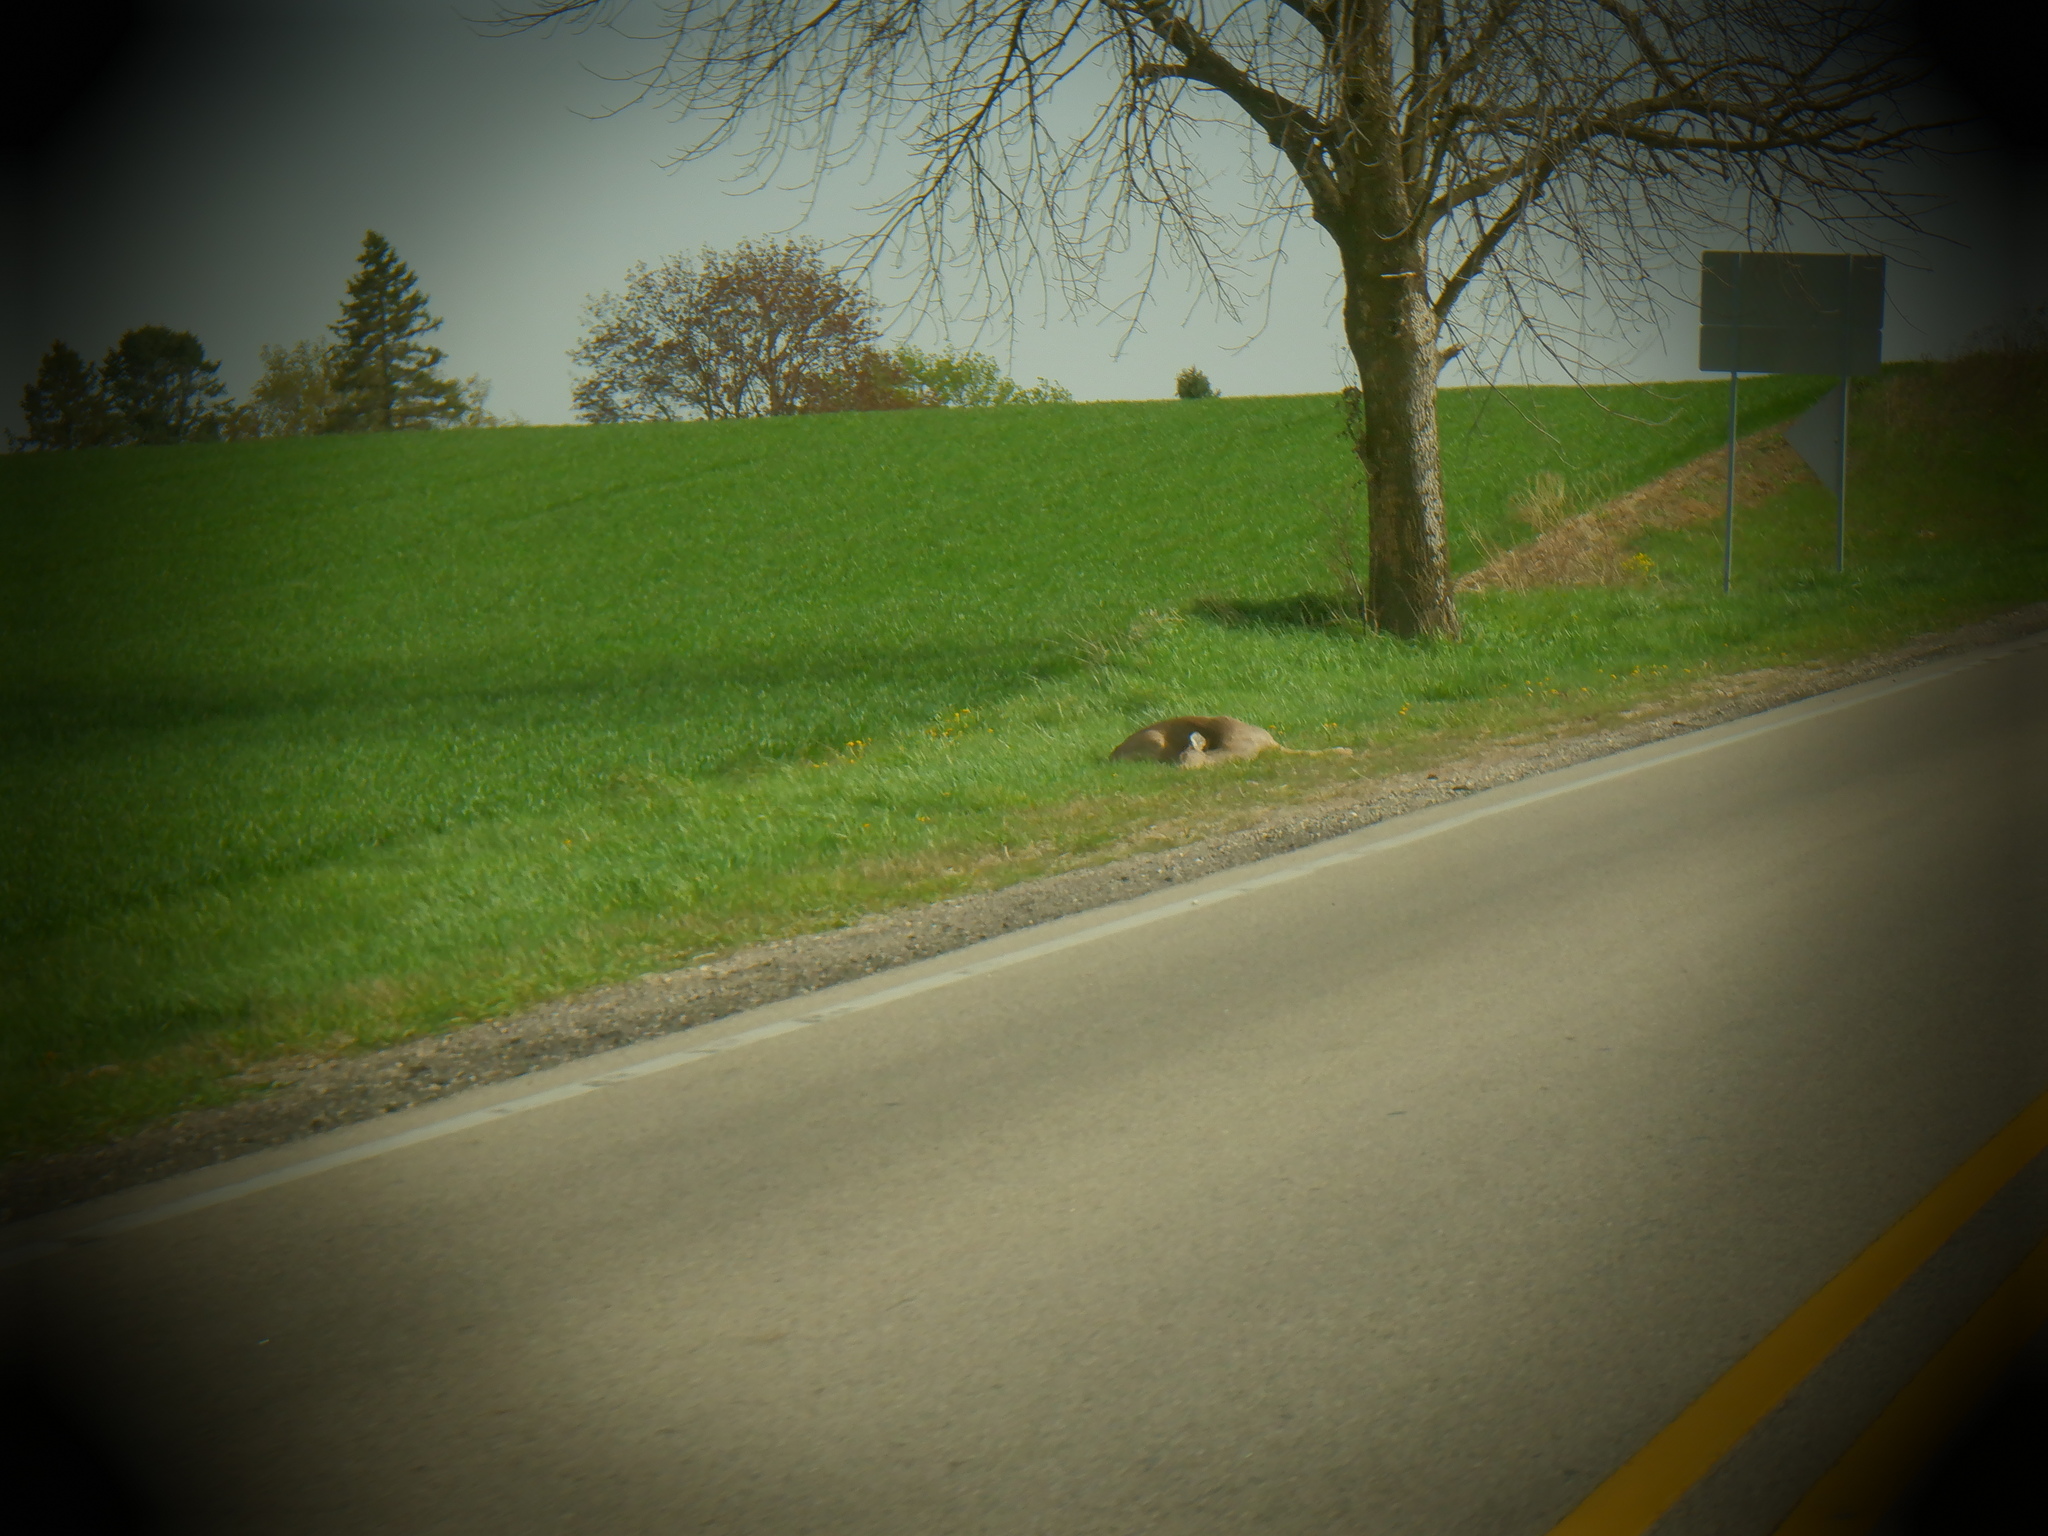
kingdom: Animalia
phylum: Chordata
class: Mammalia
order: Artiodactyla
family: Cervidae
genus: Odocoileus
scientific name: Odocoileus virginianus
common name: White-tailed deer
